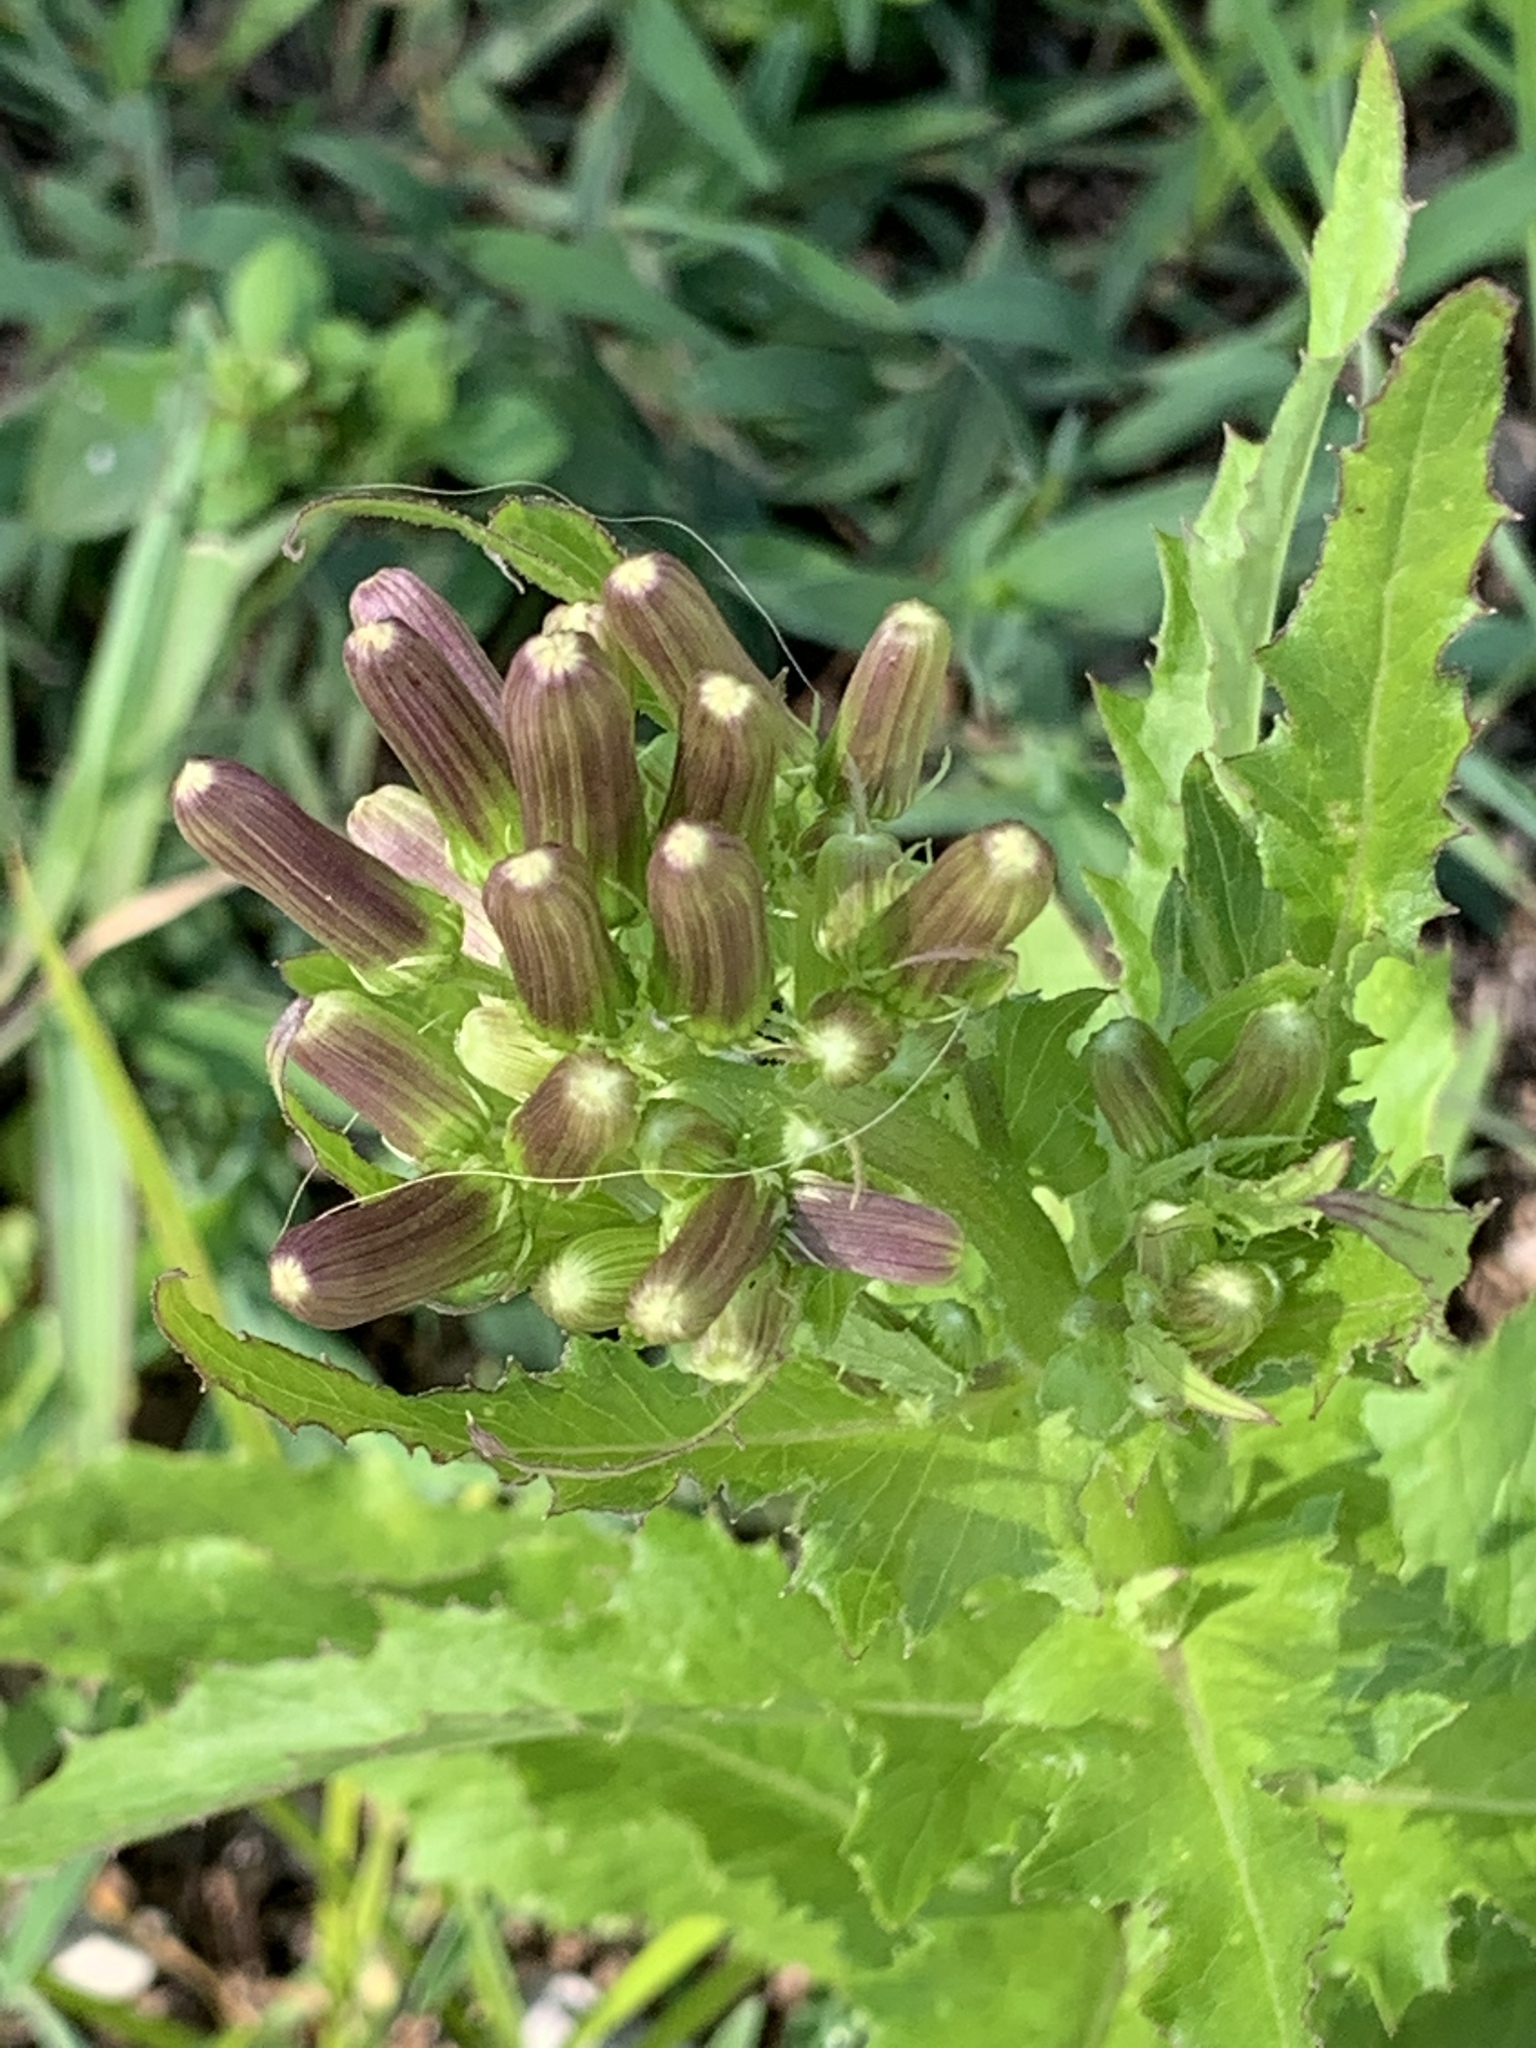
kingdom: Plantae
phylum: Tracheophyta
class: Magnoliopsida
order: Asterales
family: Asteraceae
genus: Erechtites
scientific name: Erechtites hieraciifolius
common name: American burnweed
